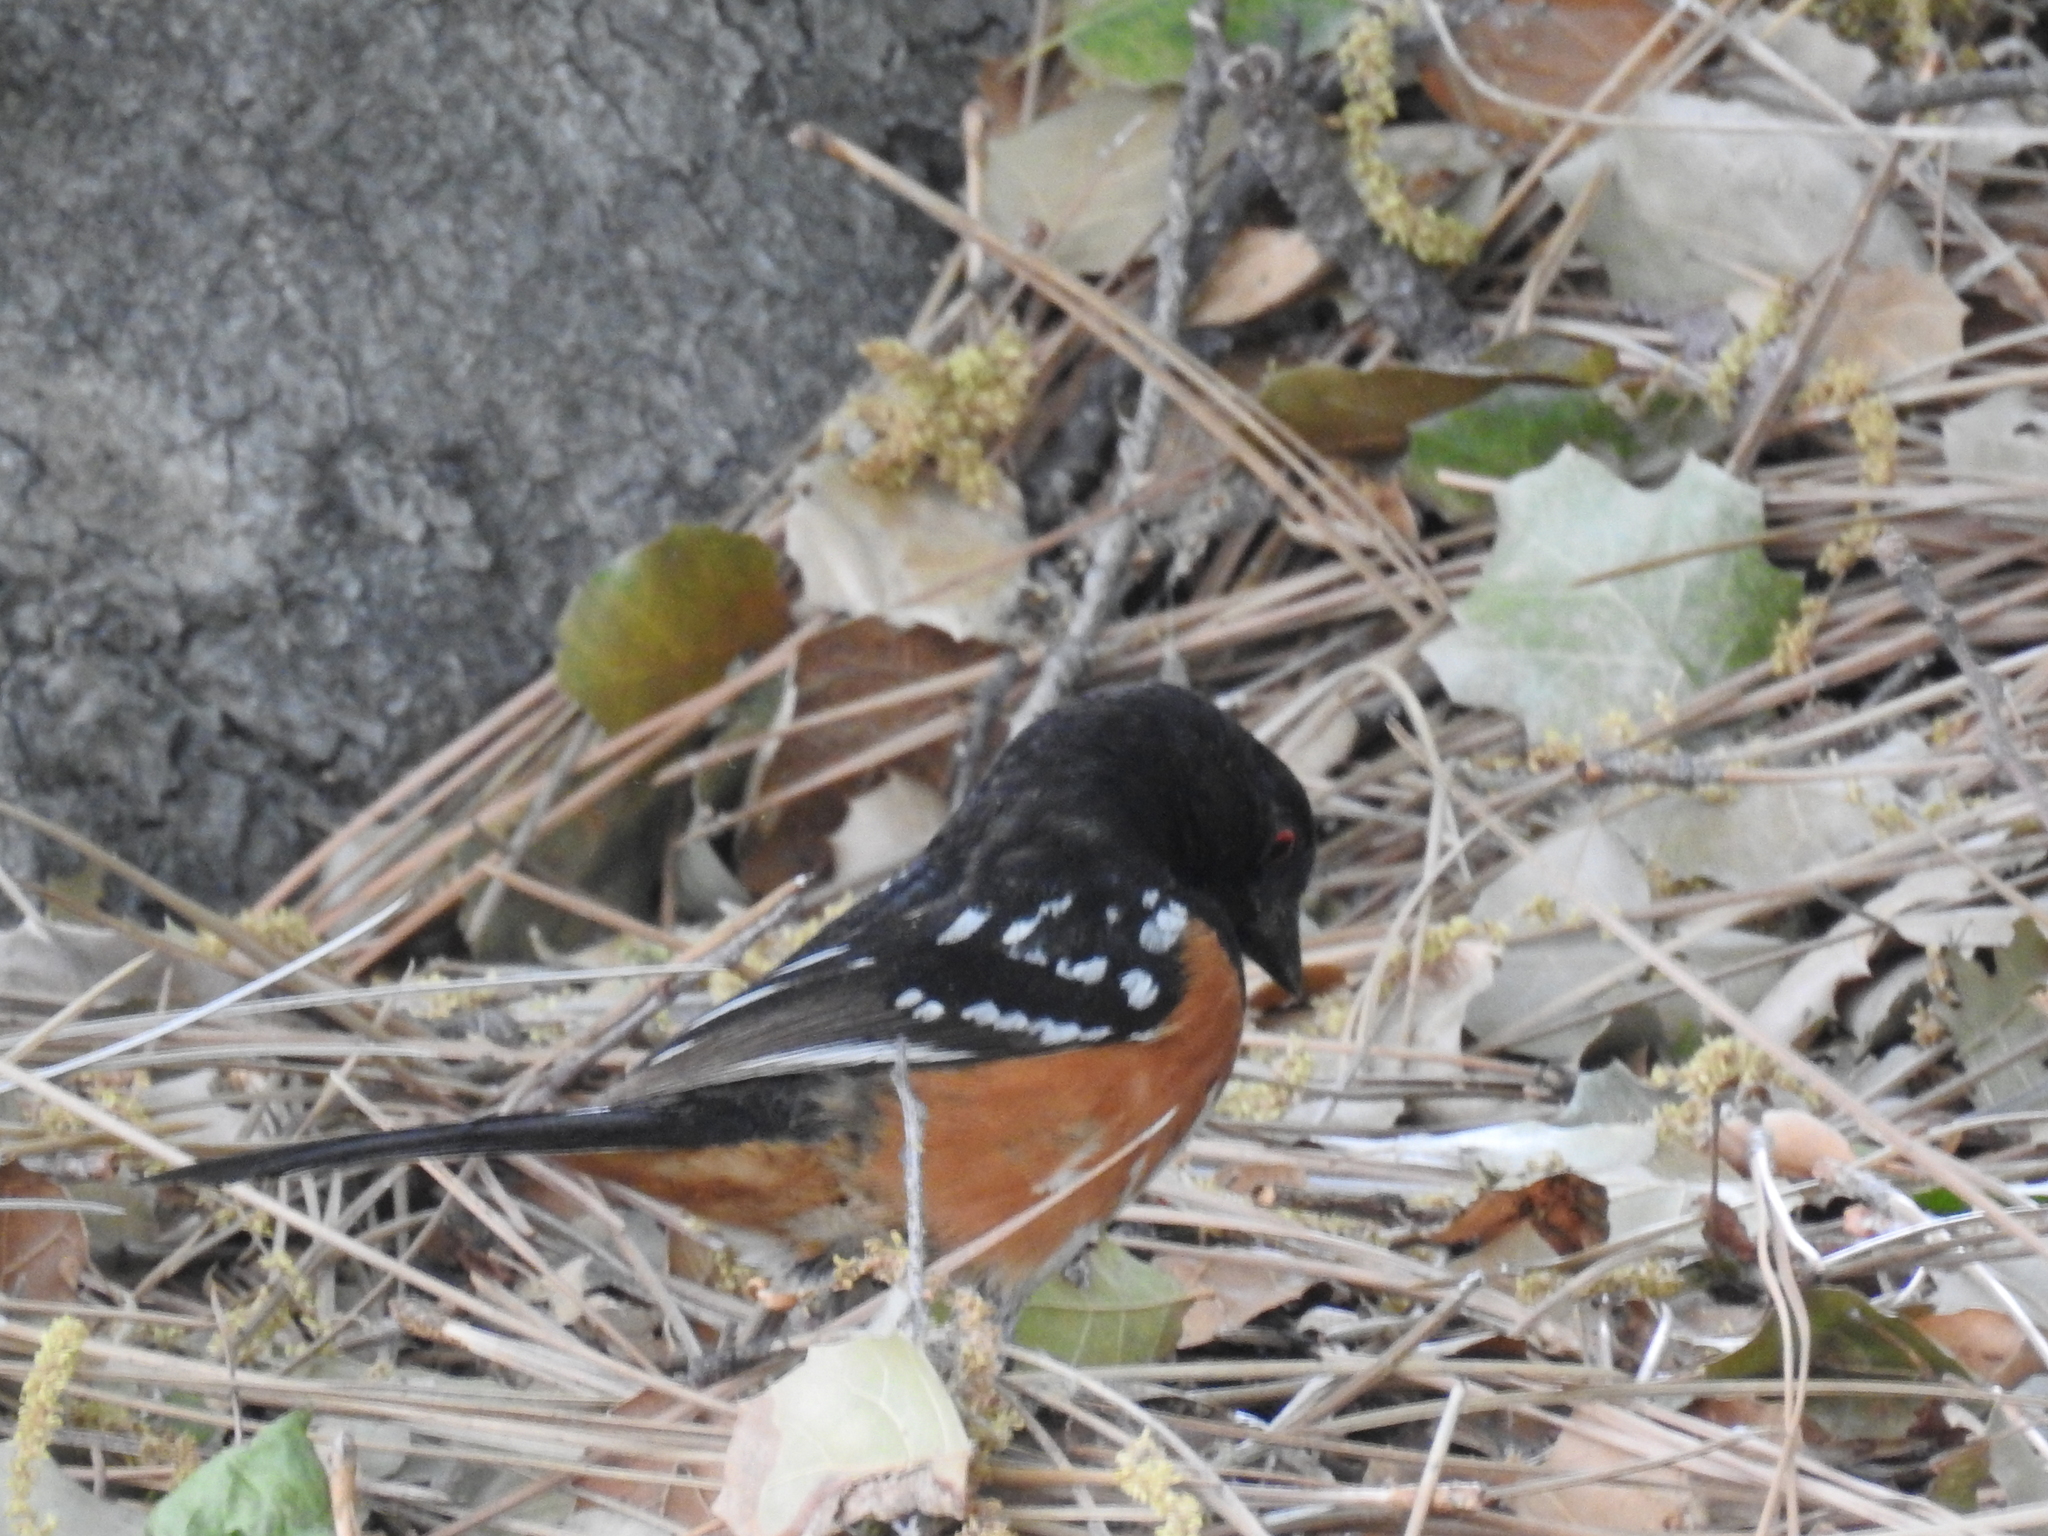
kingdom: Animalia
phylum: Chordata
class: Aves
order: Passeriformes
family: Passerellidae
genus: Pipilo
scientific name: Pipilo maculatus
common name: Spotted towhee
